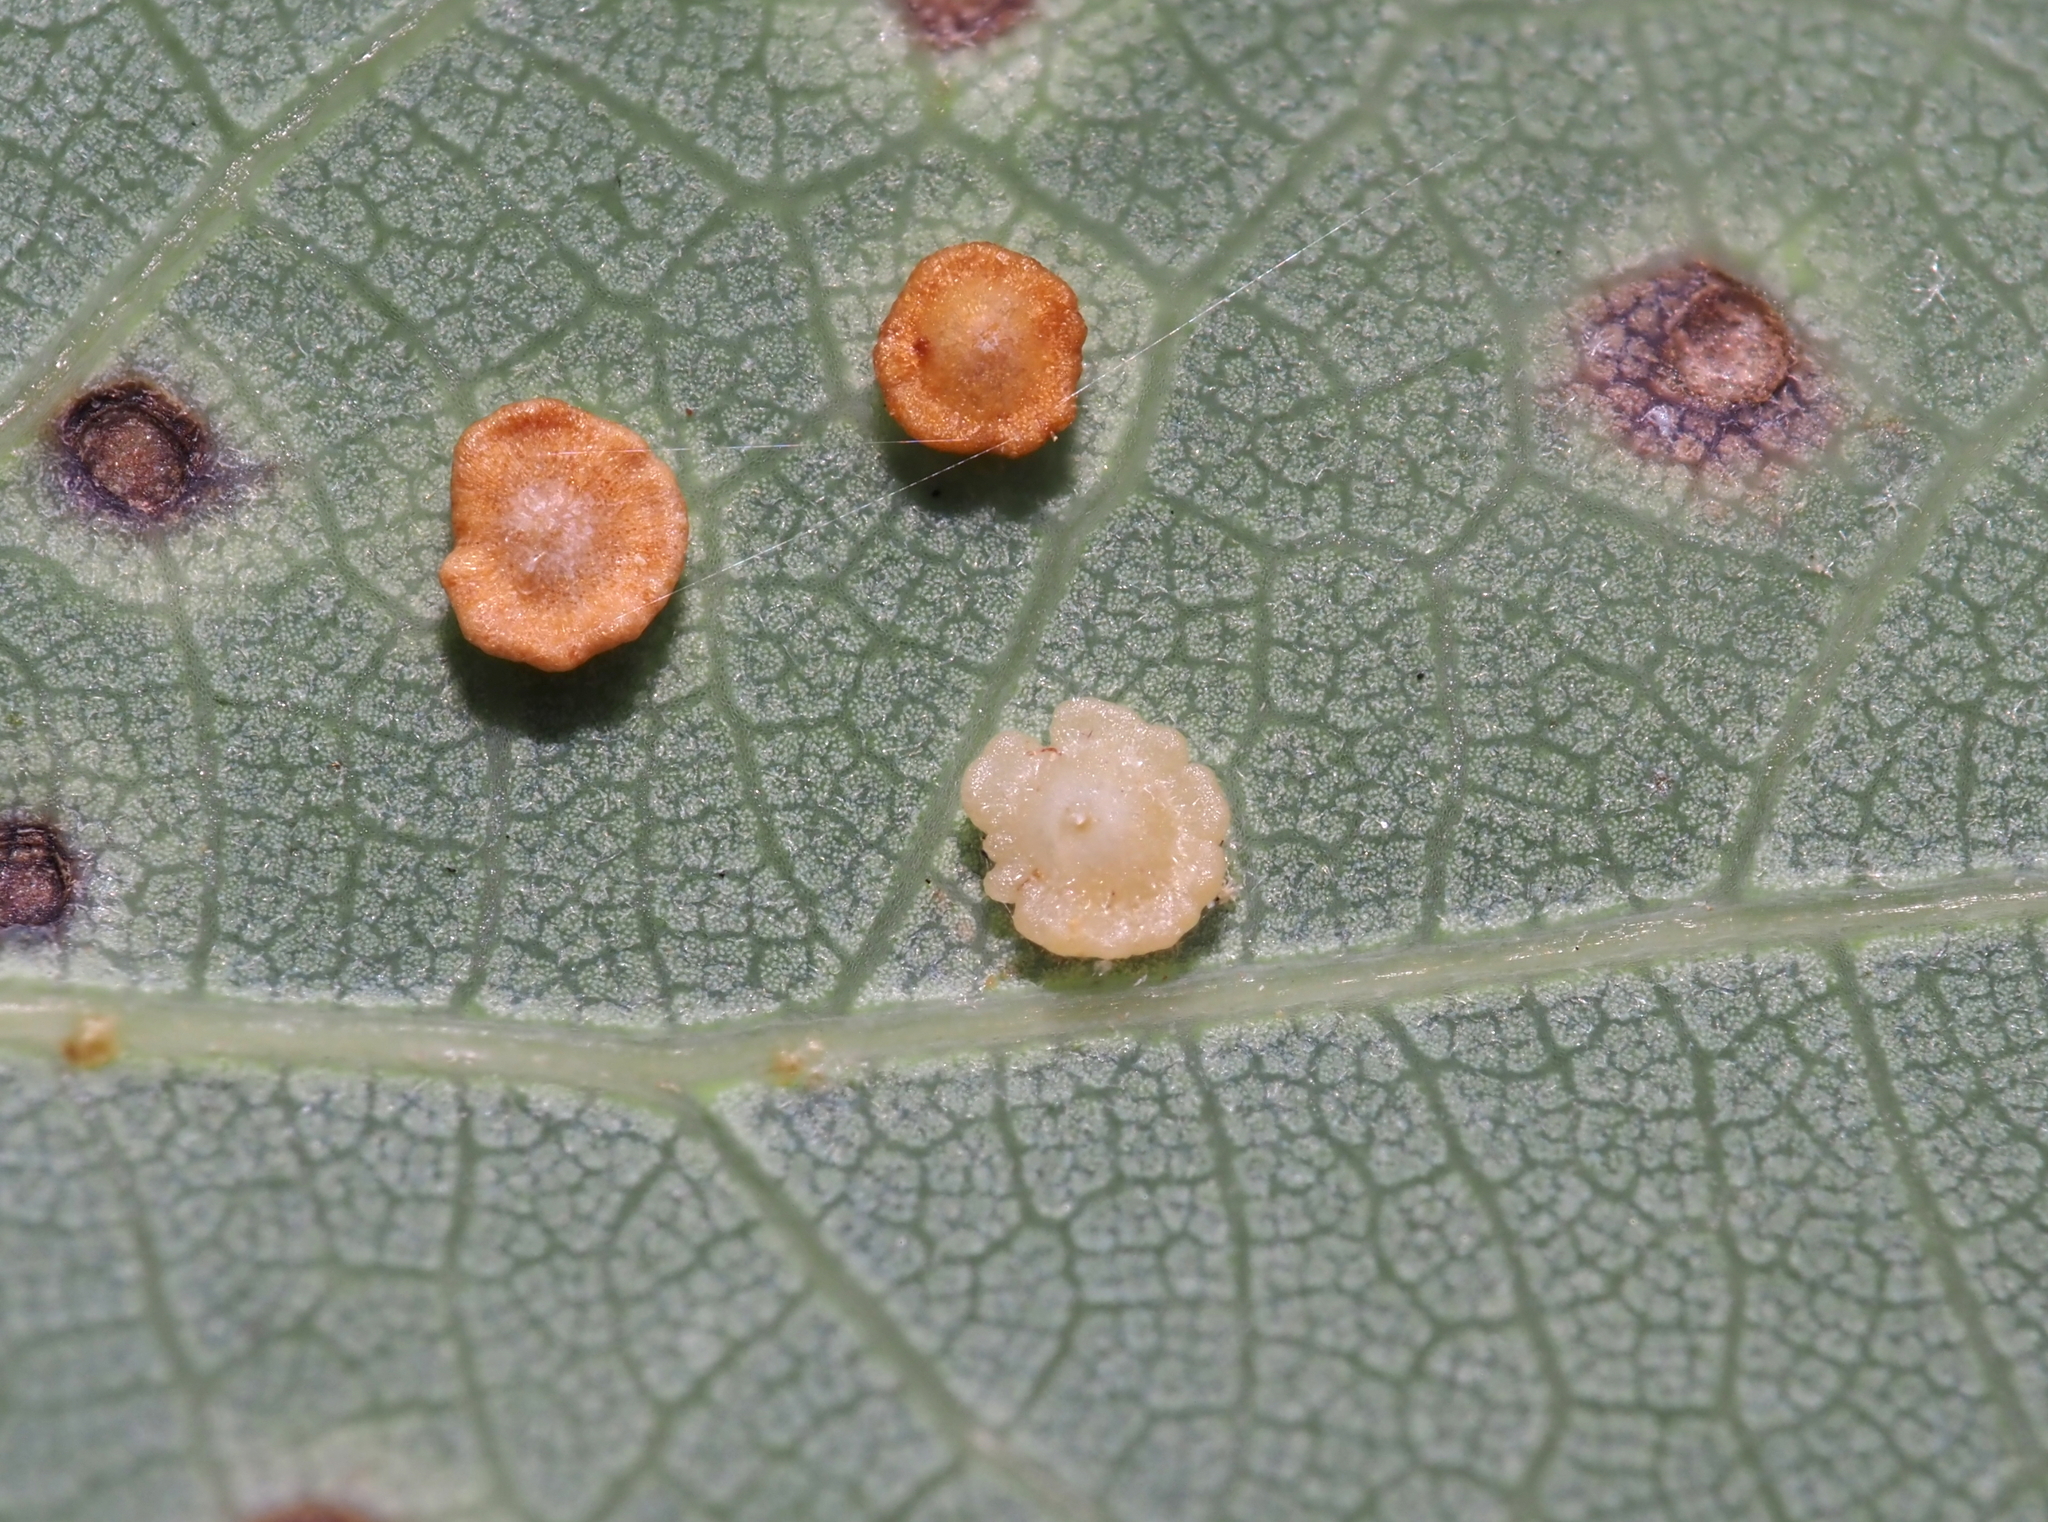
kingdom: Animalia
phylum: Arthropoda
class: Insecta
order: Hymenoptera
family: Cynipidae
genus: Neuroterus
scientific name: Neuroterus
